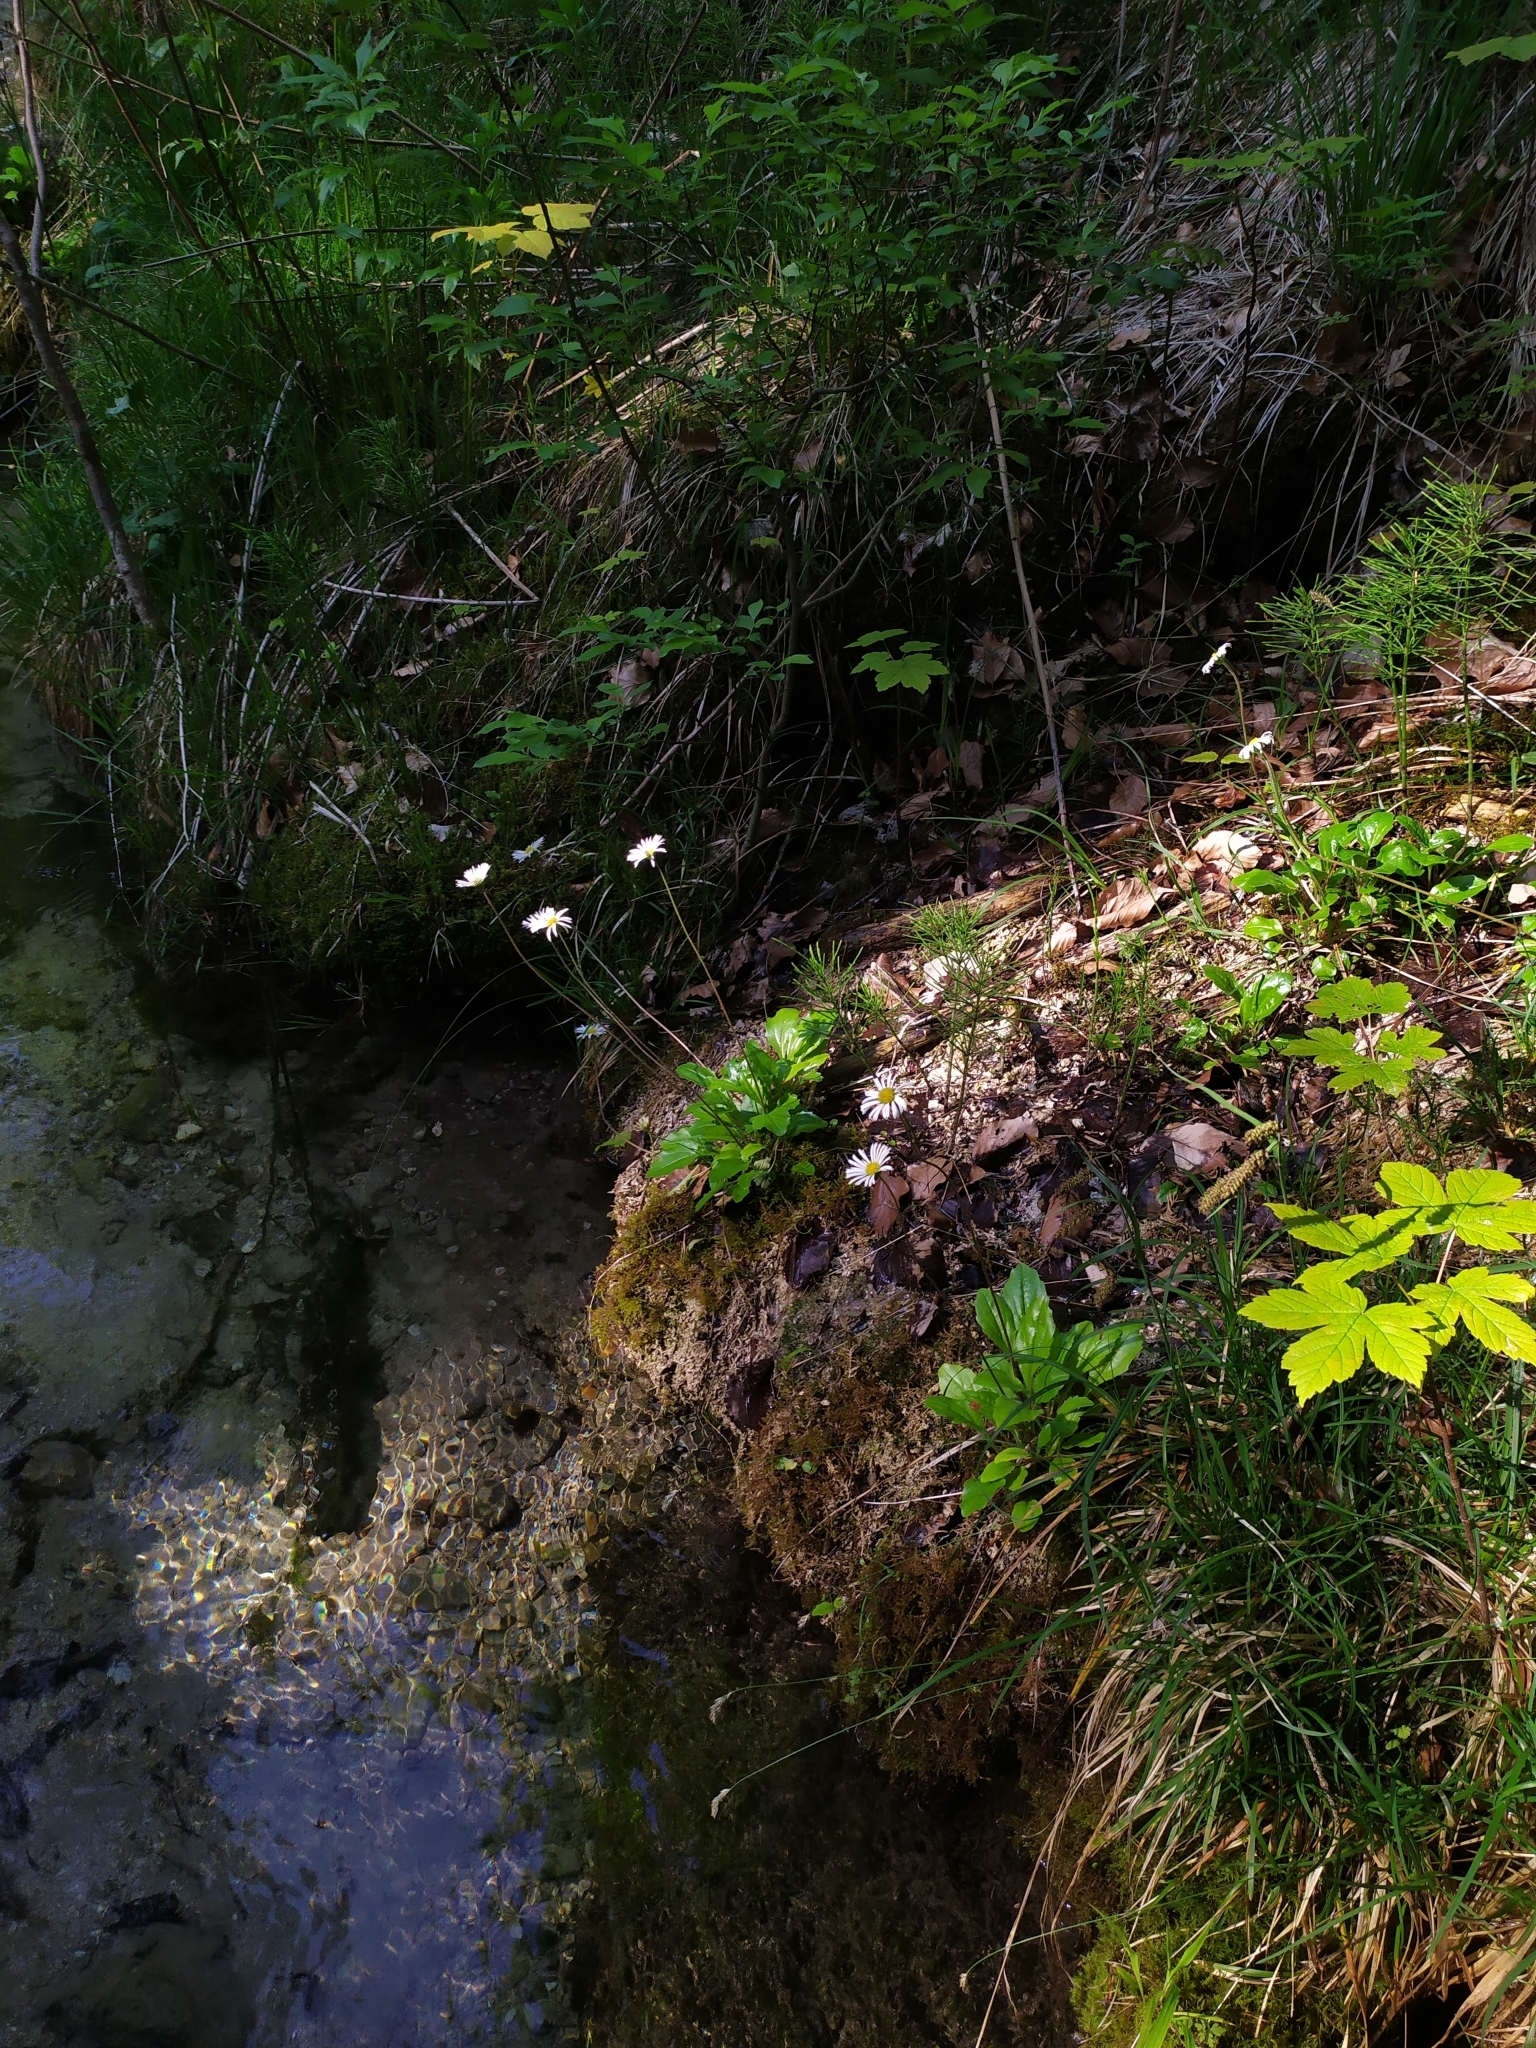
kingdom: Plantae
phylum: Tracheophyta
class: Magnoliopsida
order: Asterales
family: Asteraceae
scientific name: Asteraceae
